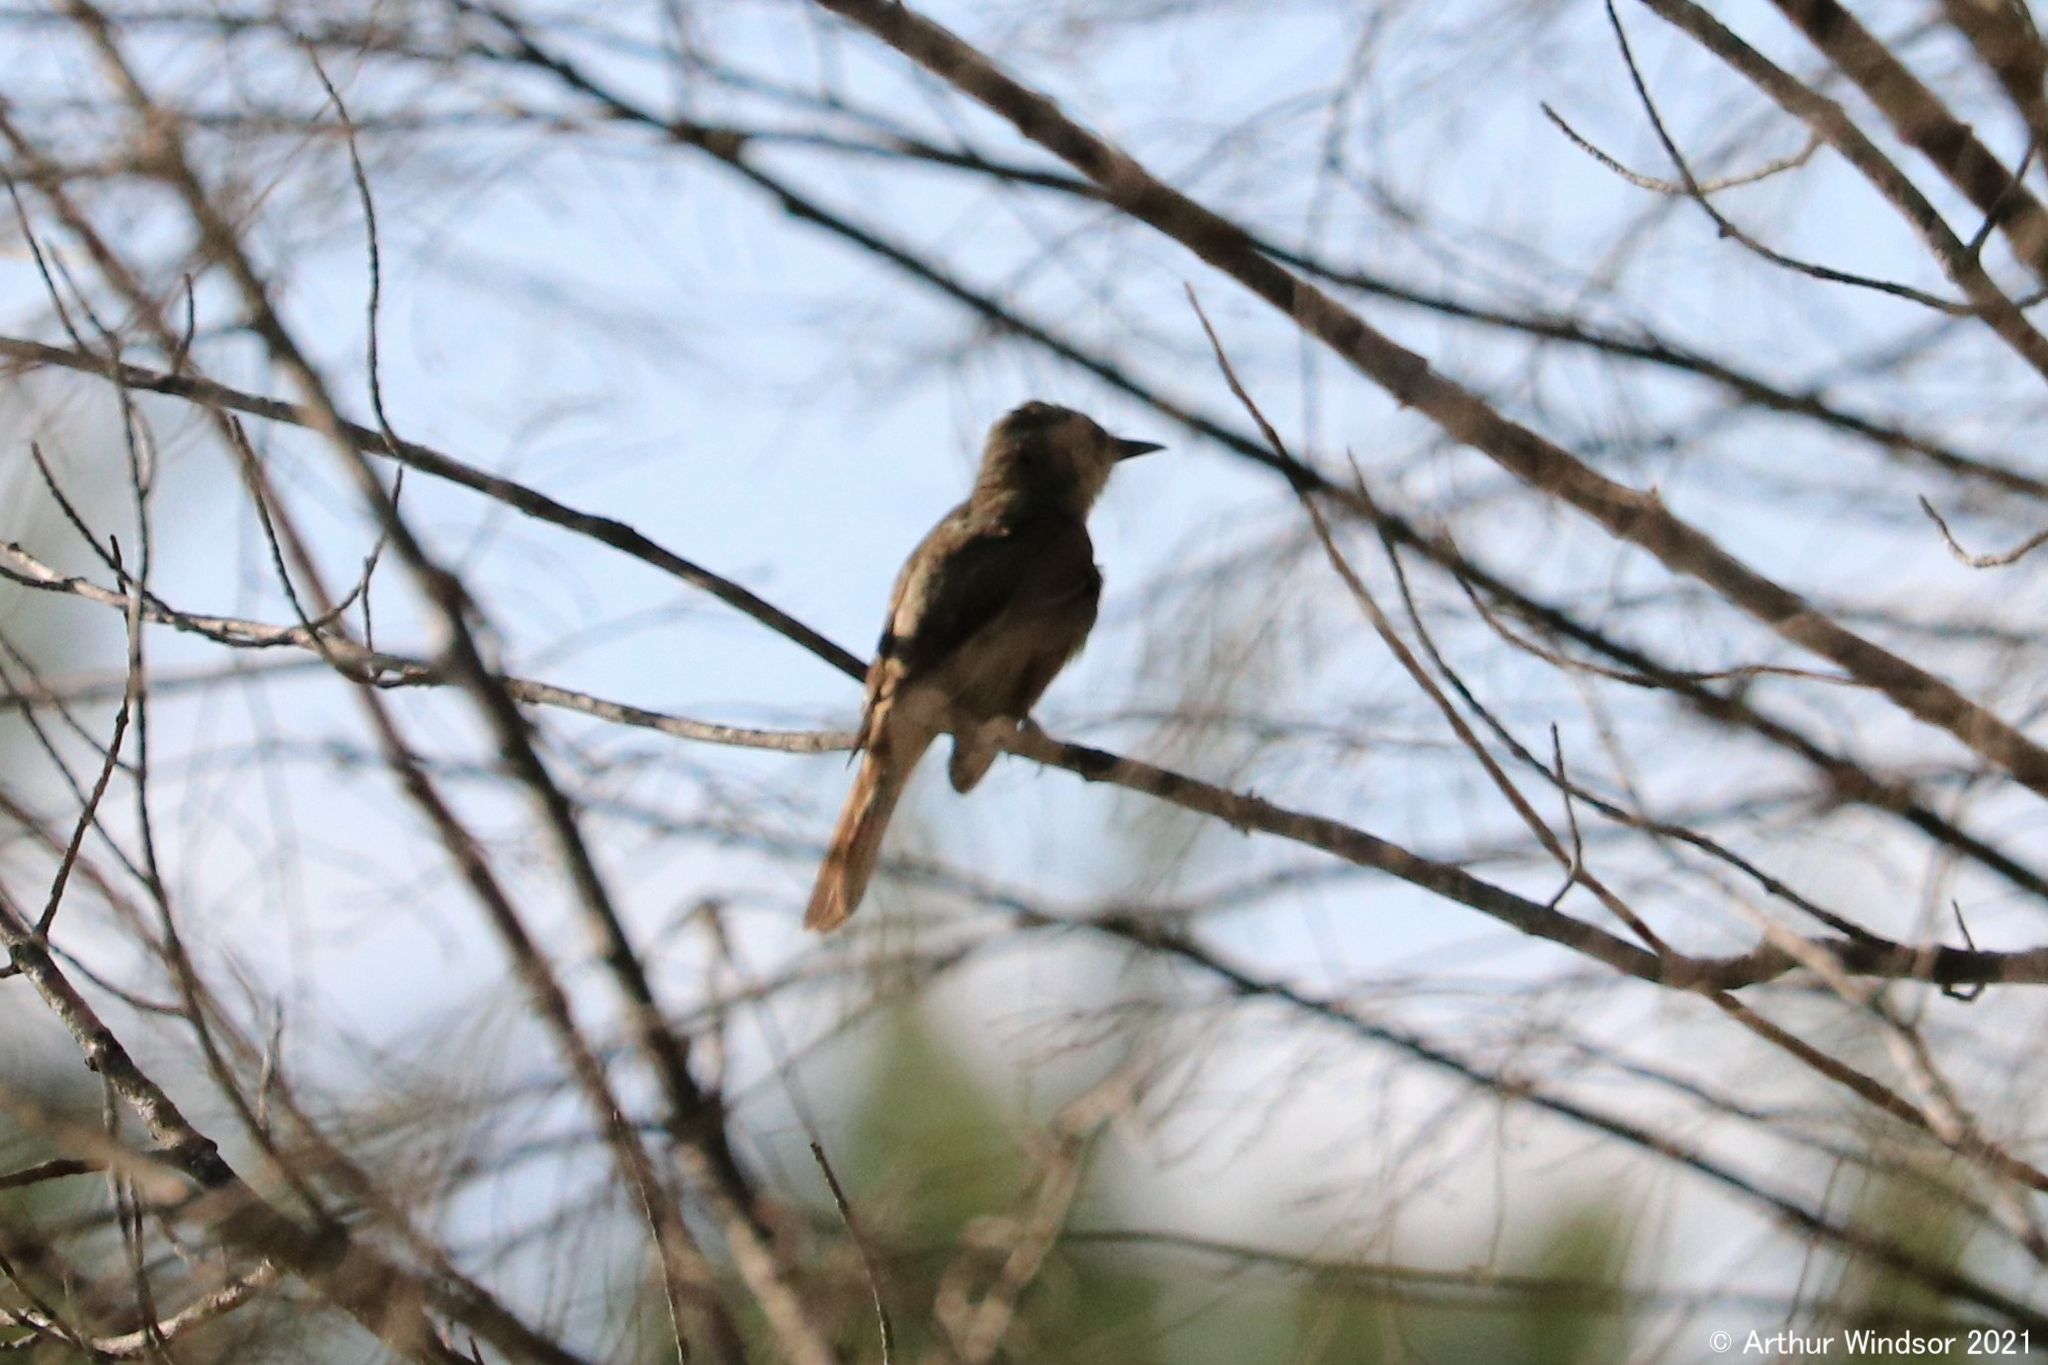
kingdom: Animalia
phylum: Chordata
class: Aves
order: Passeriformes
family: Tyrannidae
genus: Myiarchus
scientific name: Myiarchus crinitus
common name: Great crested flycatcher
